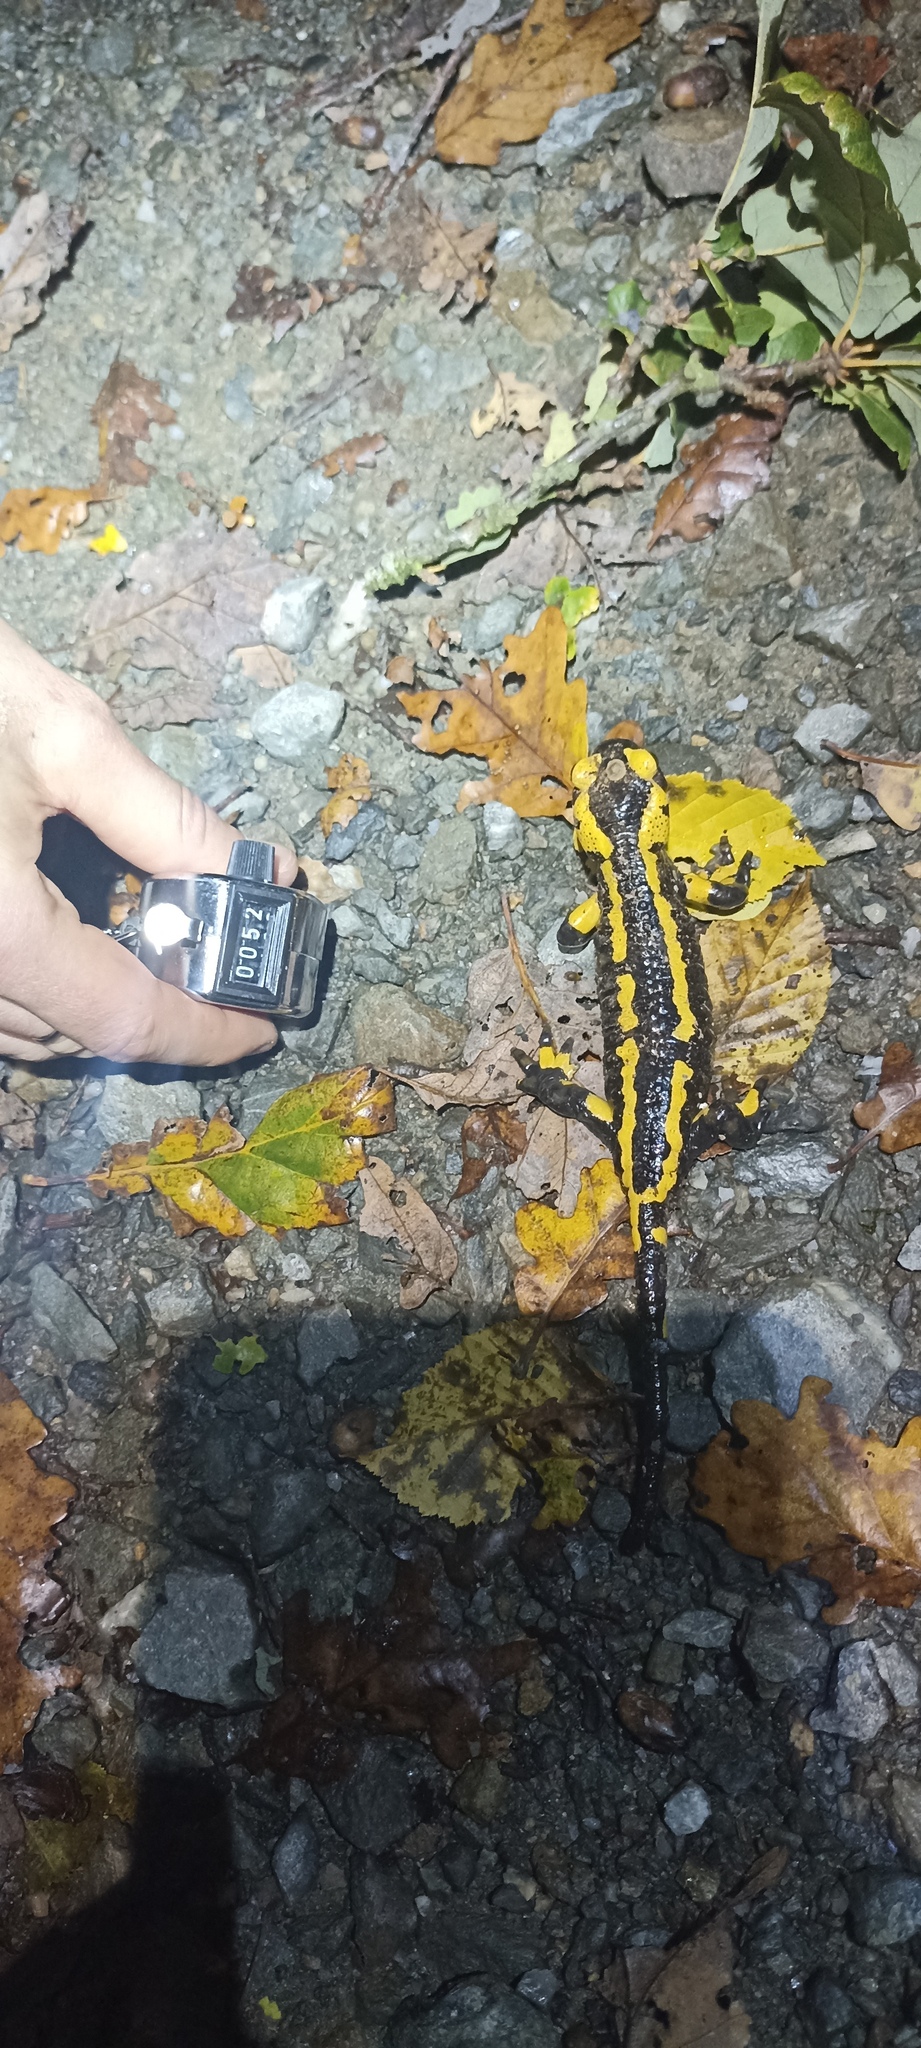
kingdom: Animalia
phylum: Chordata
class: Amphibia
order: Caudata
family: Salamandridae
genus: Salamandra
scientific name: Salamandra salamandra
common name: Fire salamander
